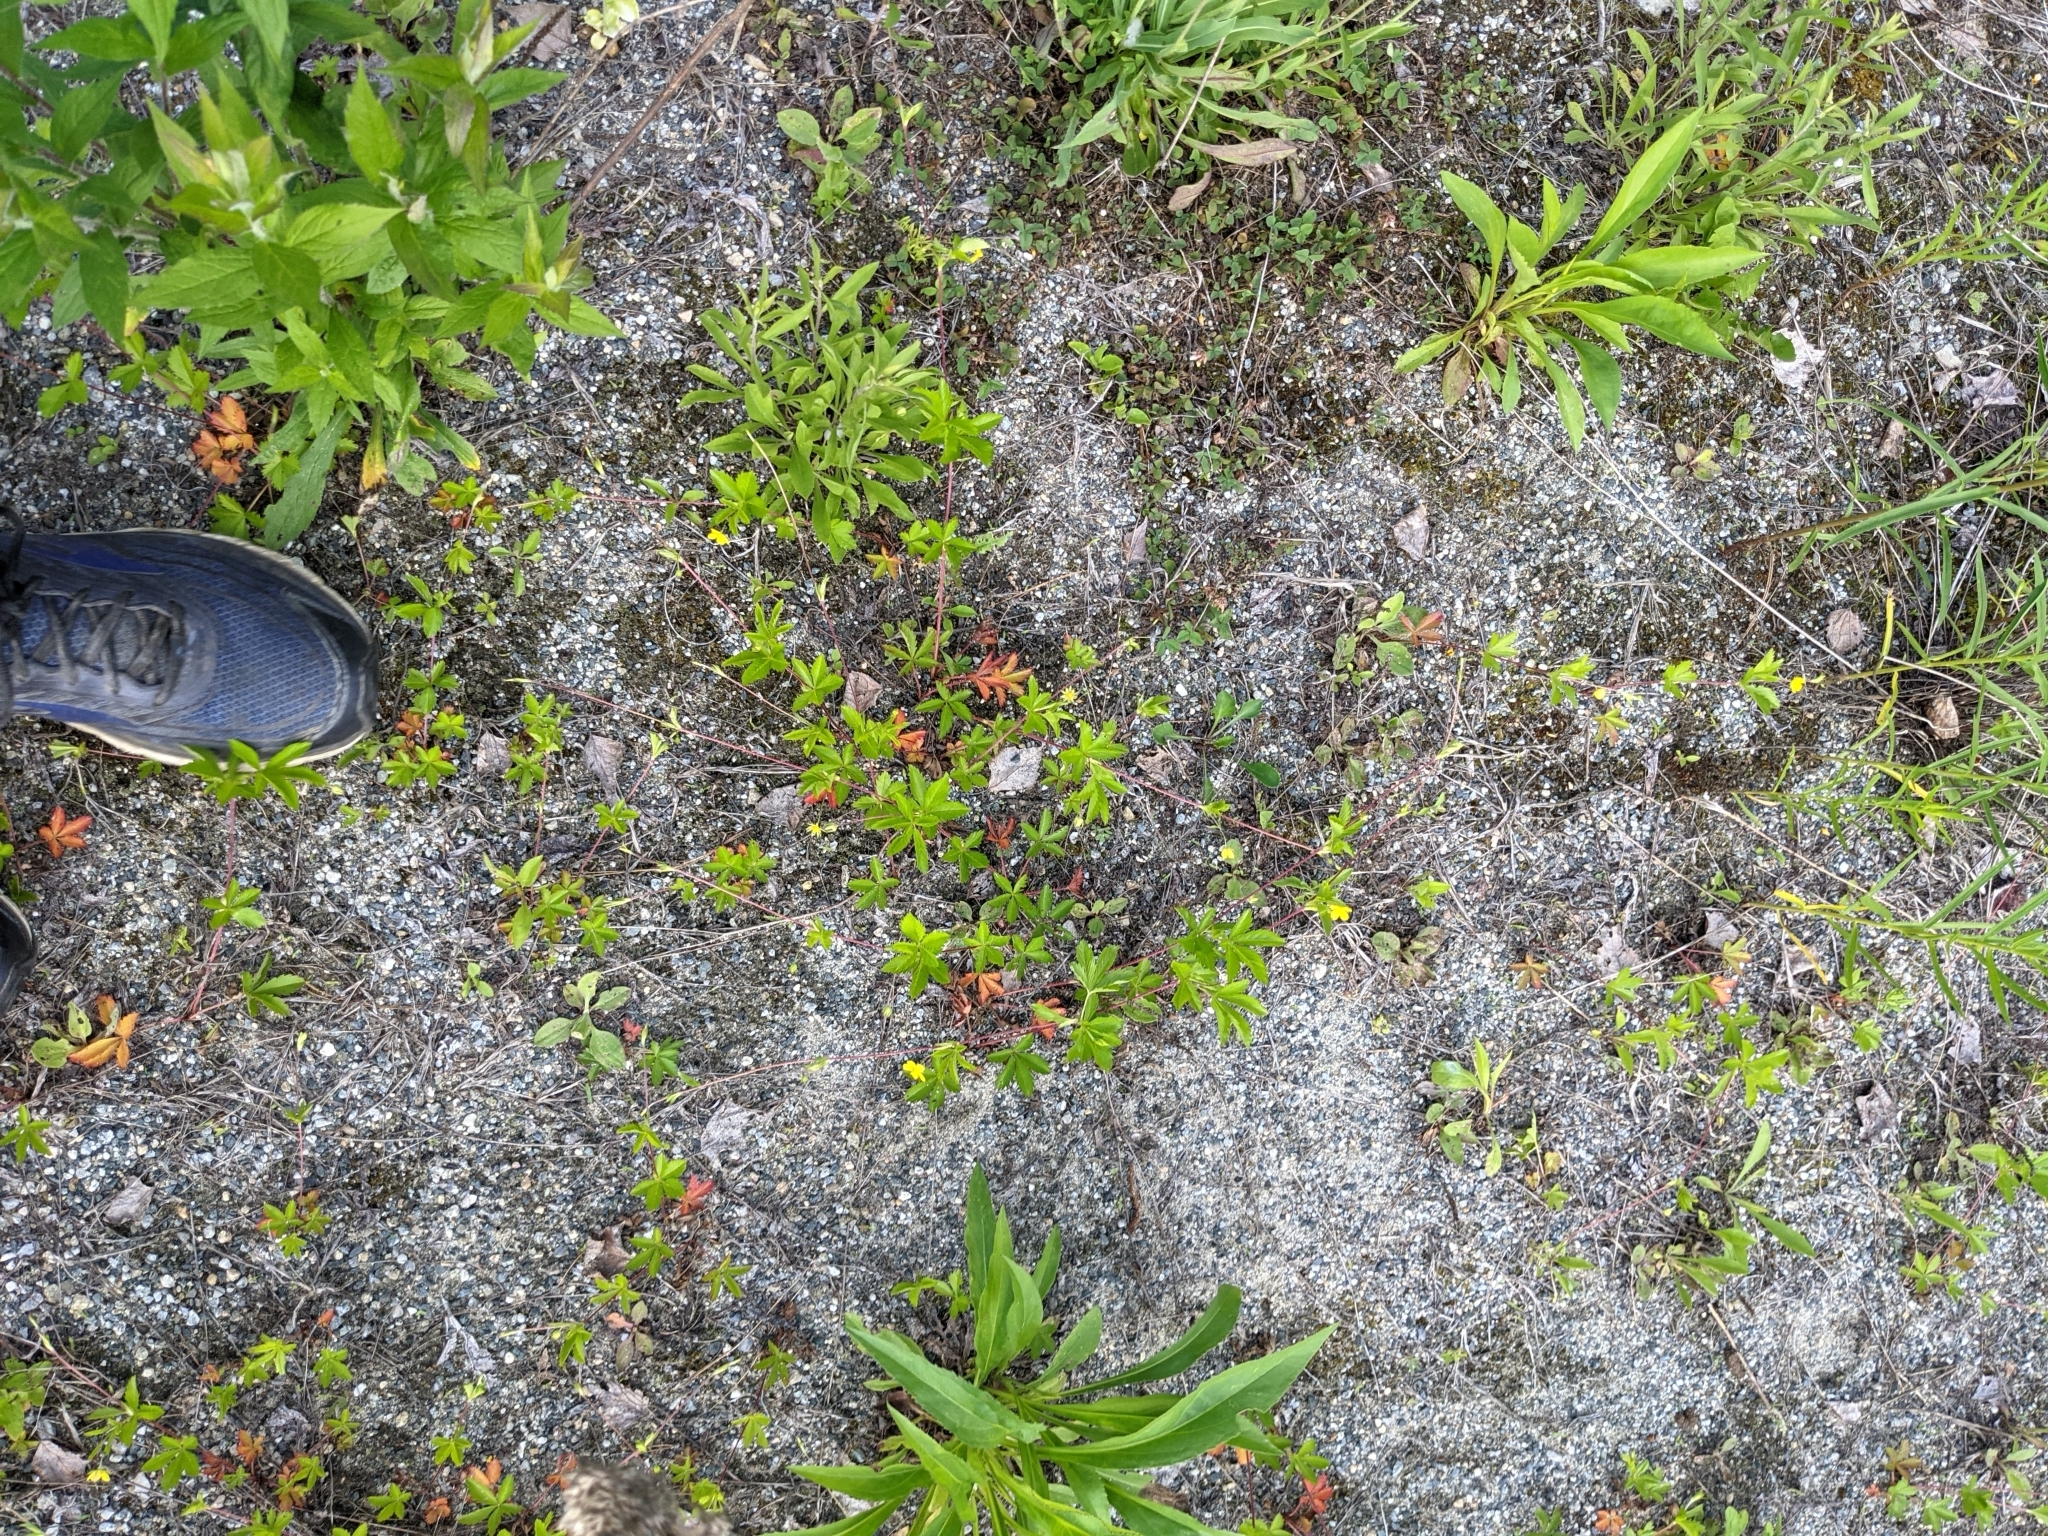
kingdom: Plantae
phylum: Tracheophyta
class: Magnoliopsida
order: Rosales
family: Rosaceae
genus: Potentilla
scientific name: Potentilla simplex
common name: Old field cinquefoil
